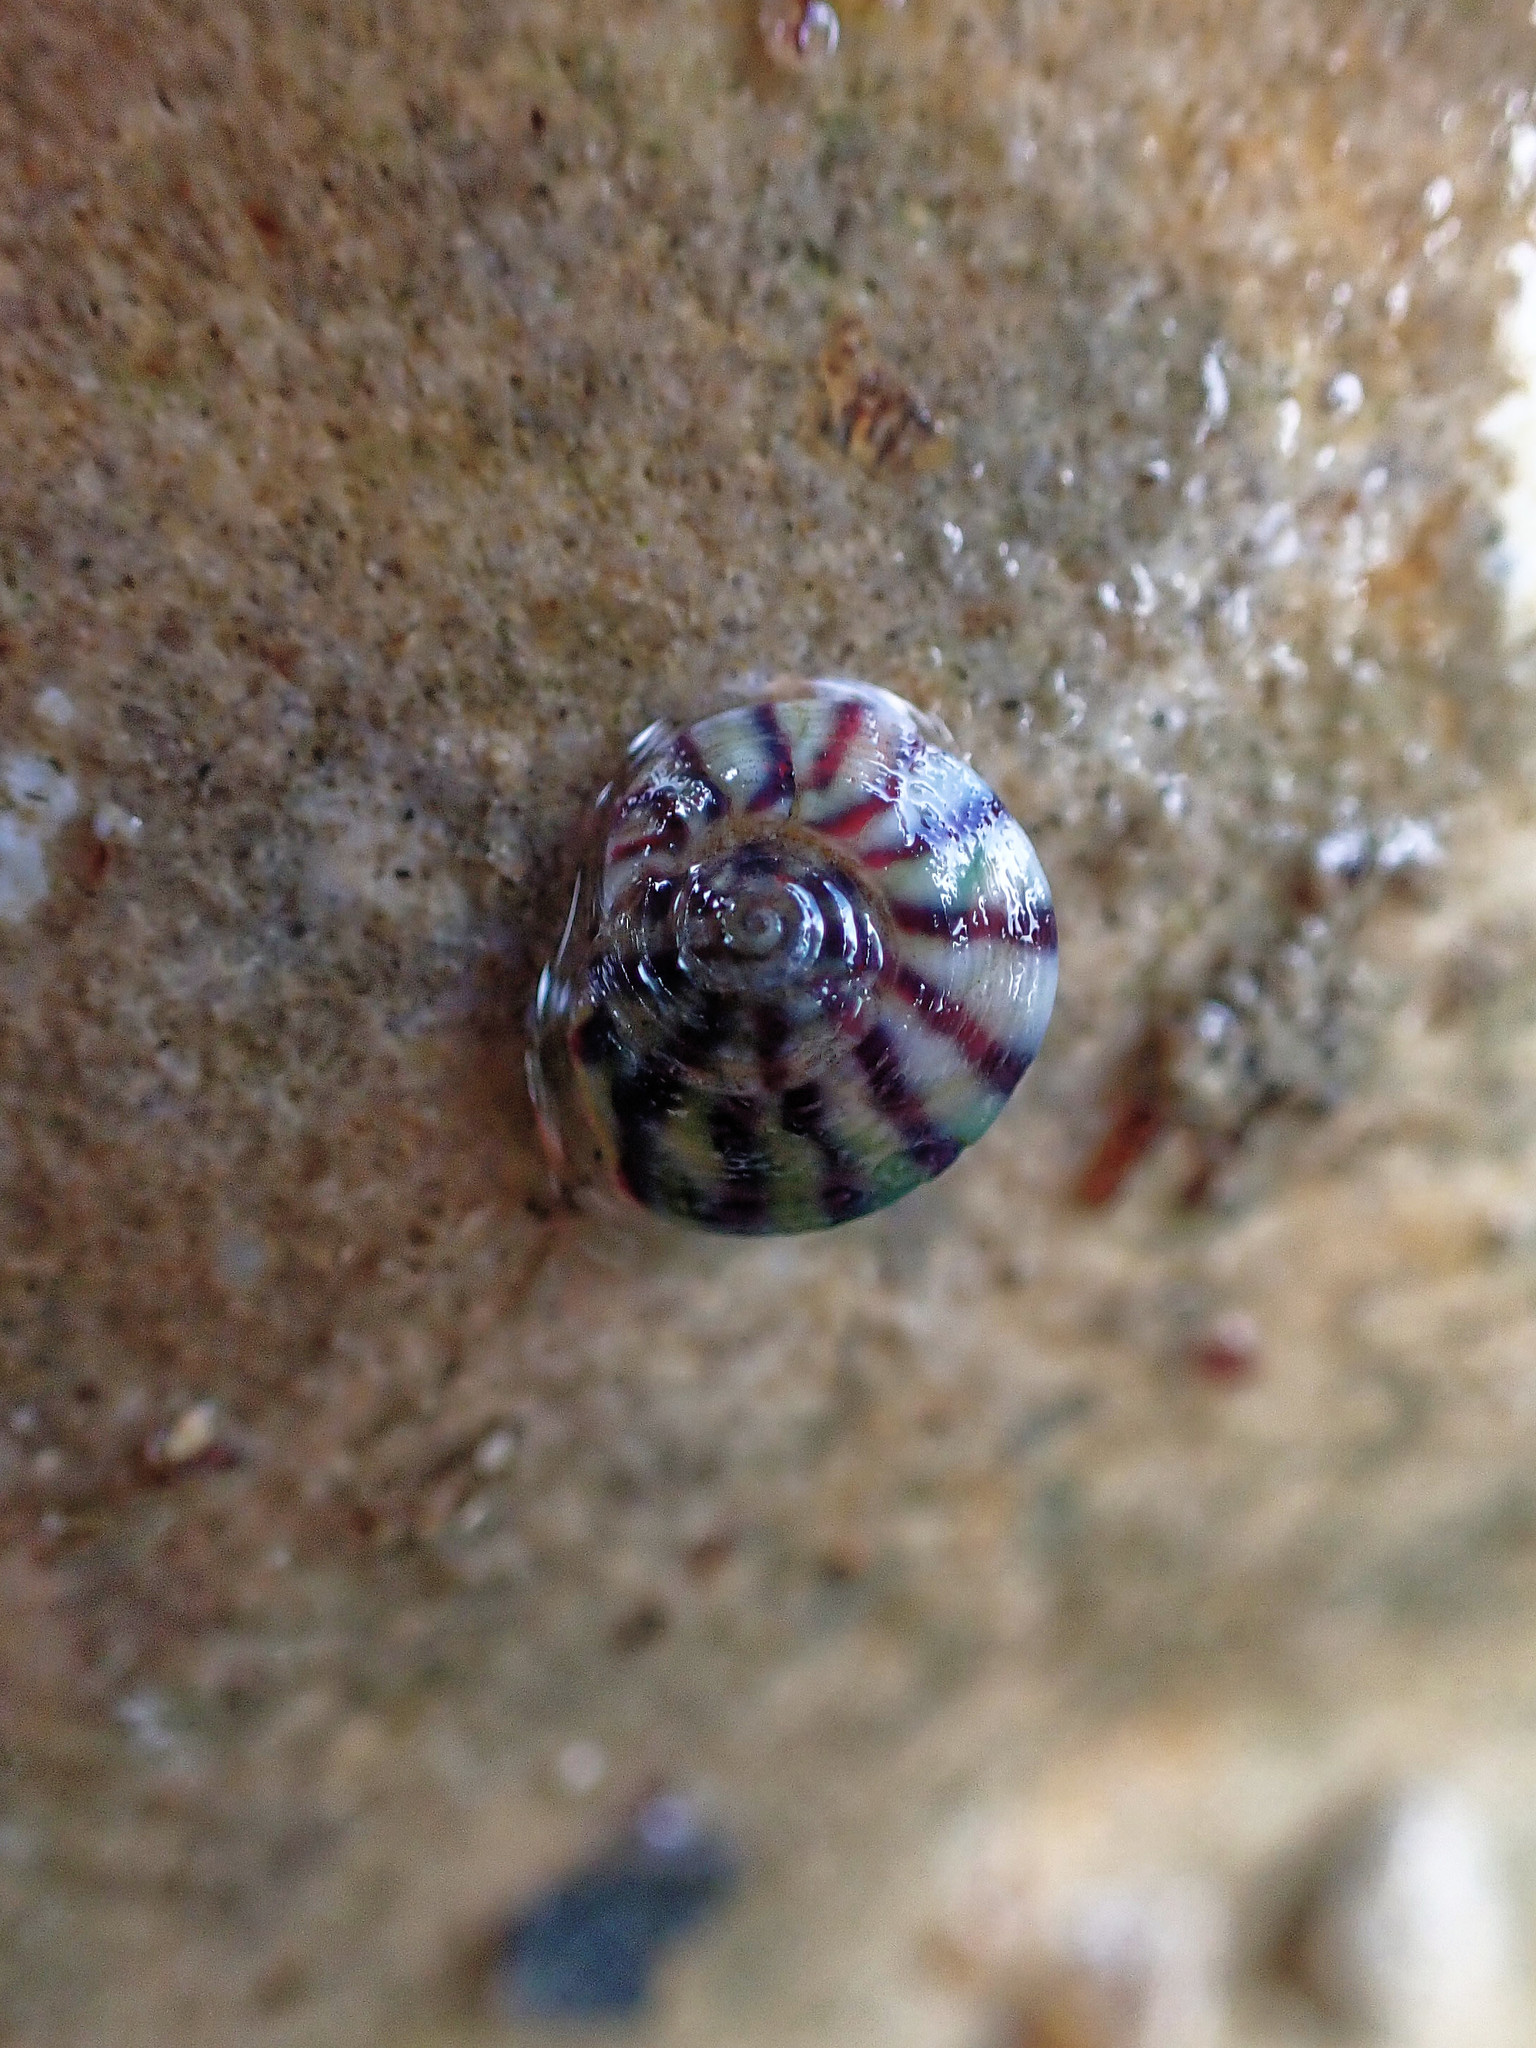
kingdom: Animalia
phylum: Mollusca
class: Gastropoda
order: Trochida
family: Trochidae
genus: Steromphala
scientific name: Steromphala umbilicalis
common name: Flat top shell
